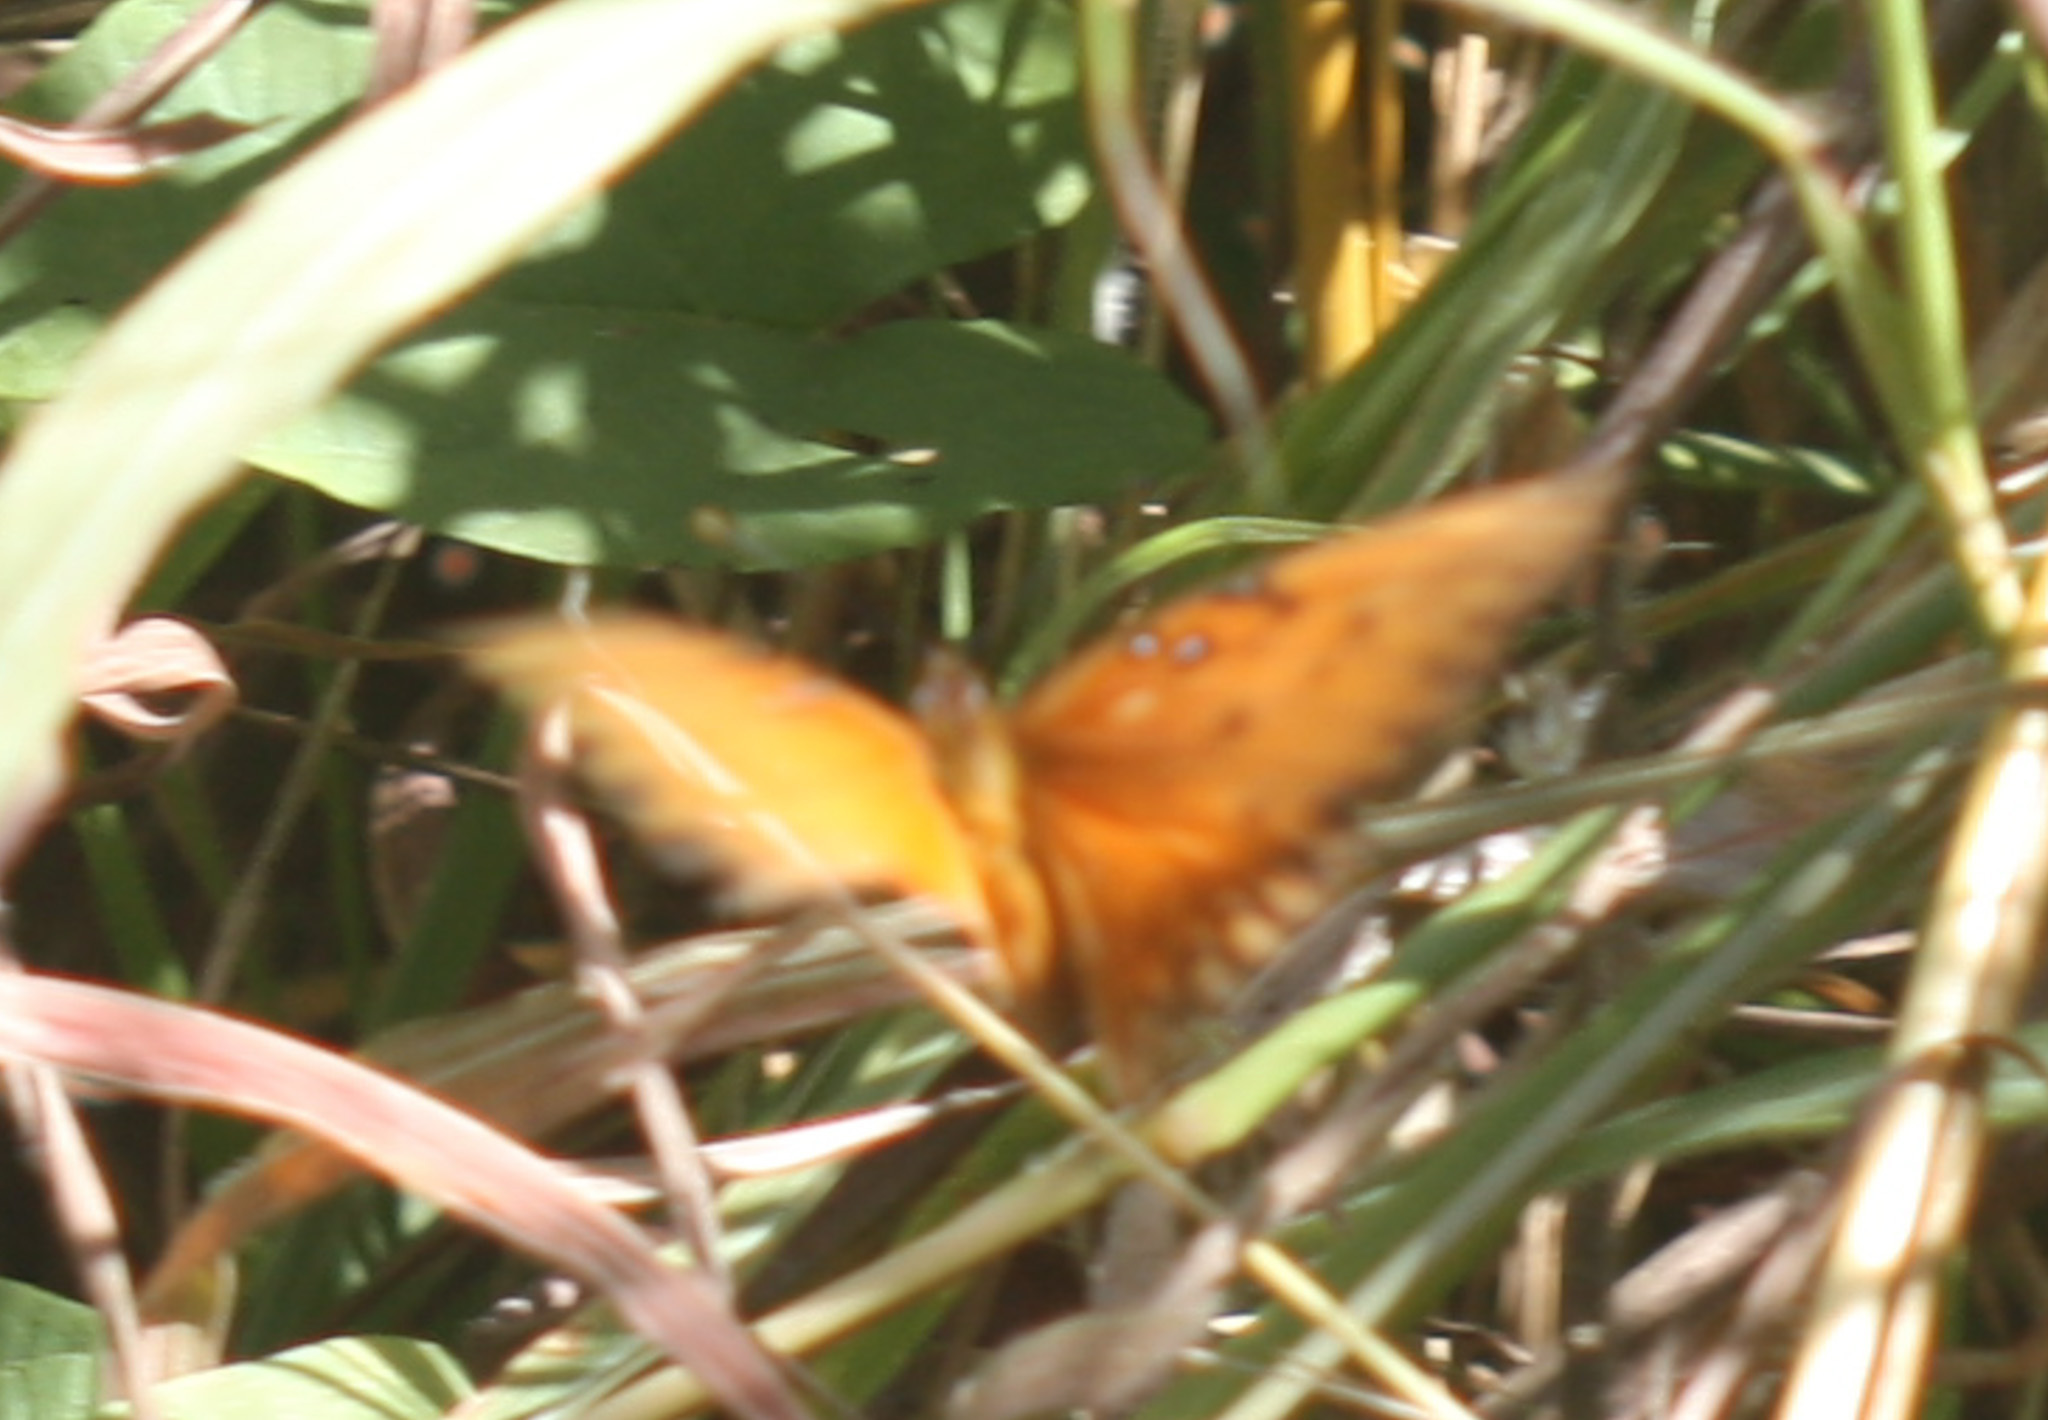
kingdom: Animalia
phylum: Arthropoda
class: Insecta
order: Lepidoptera
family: Nymphalidae
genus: Dione
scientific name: Dione vanillae
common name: Gulf fritillary
